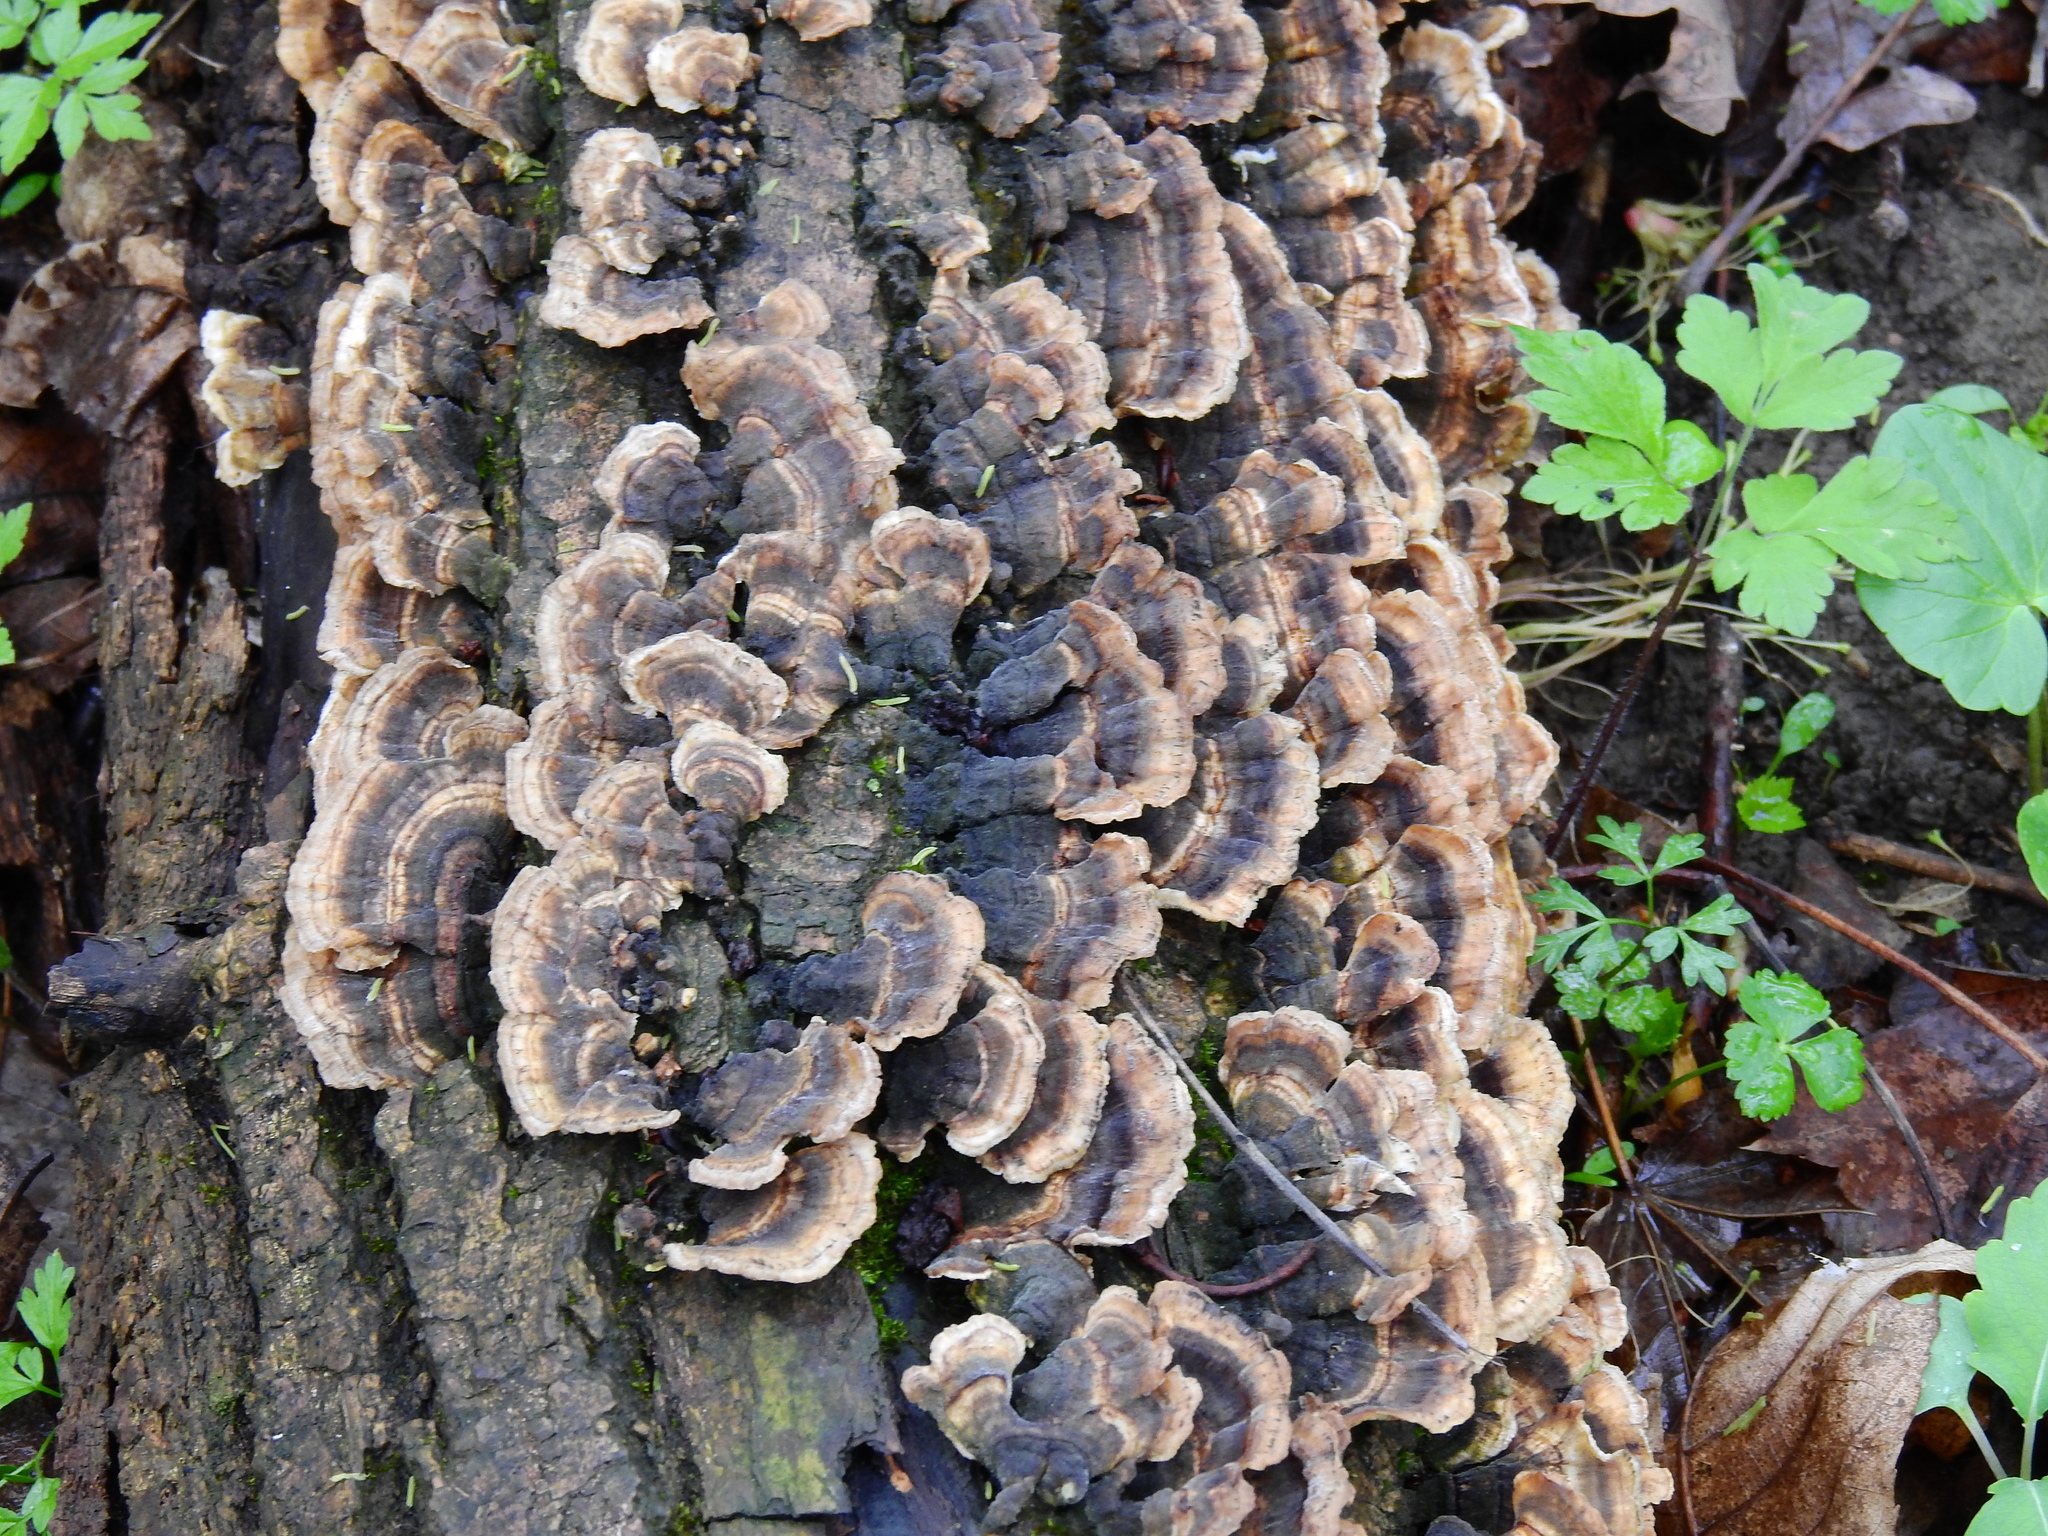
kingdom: Fungi
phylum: Basidiomycota
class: Agaricomycetes
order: Polyporales
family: Polyporaceae
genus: Trametes
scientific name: Trametes versicolor
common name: Turkeytail
